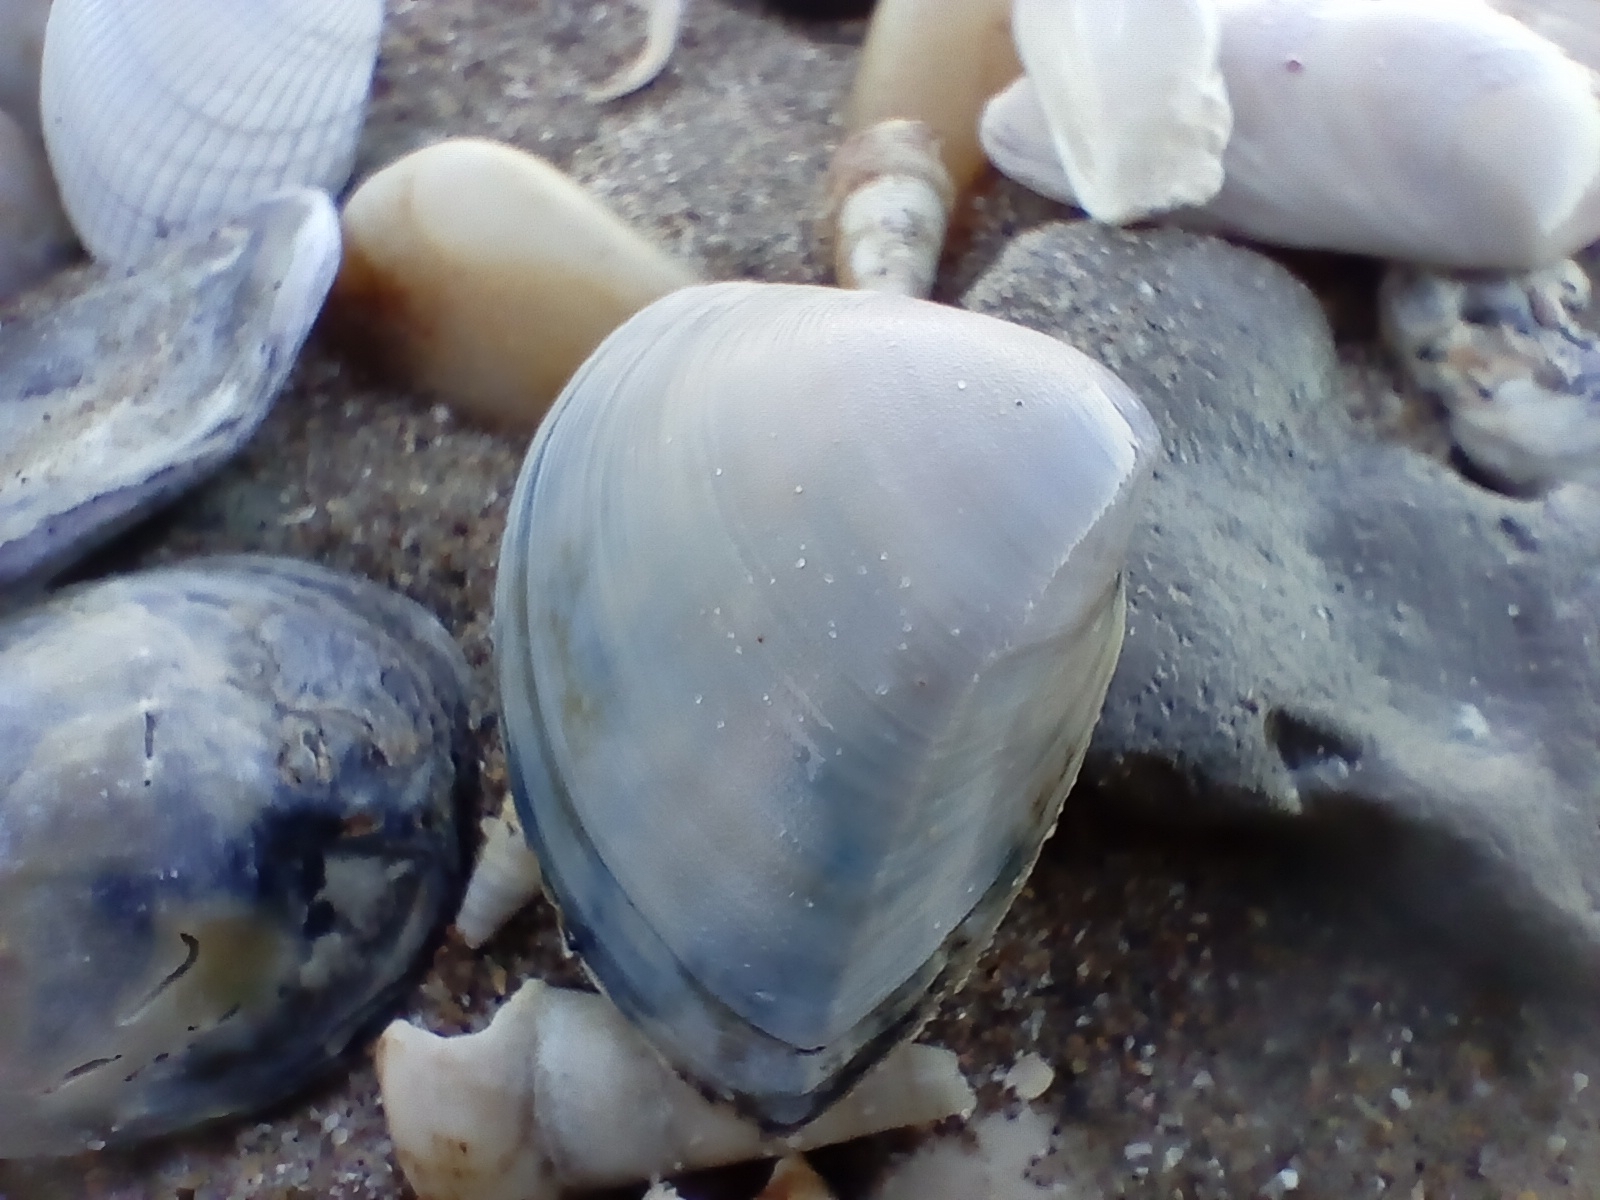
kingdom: Animalia
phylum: Mollusca
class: Bivalvia
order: Venerida
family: Mactridae
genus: Crassula
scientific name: Crassula aequilatera
